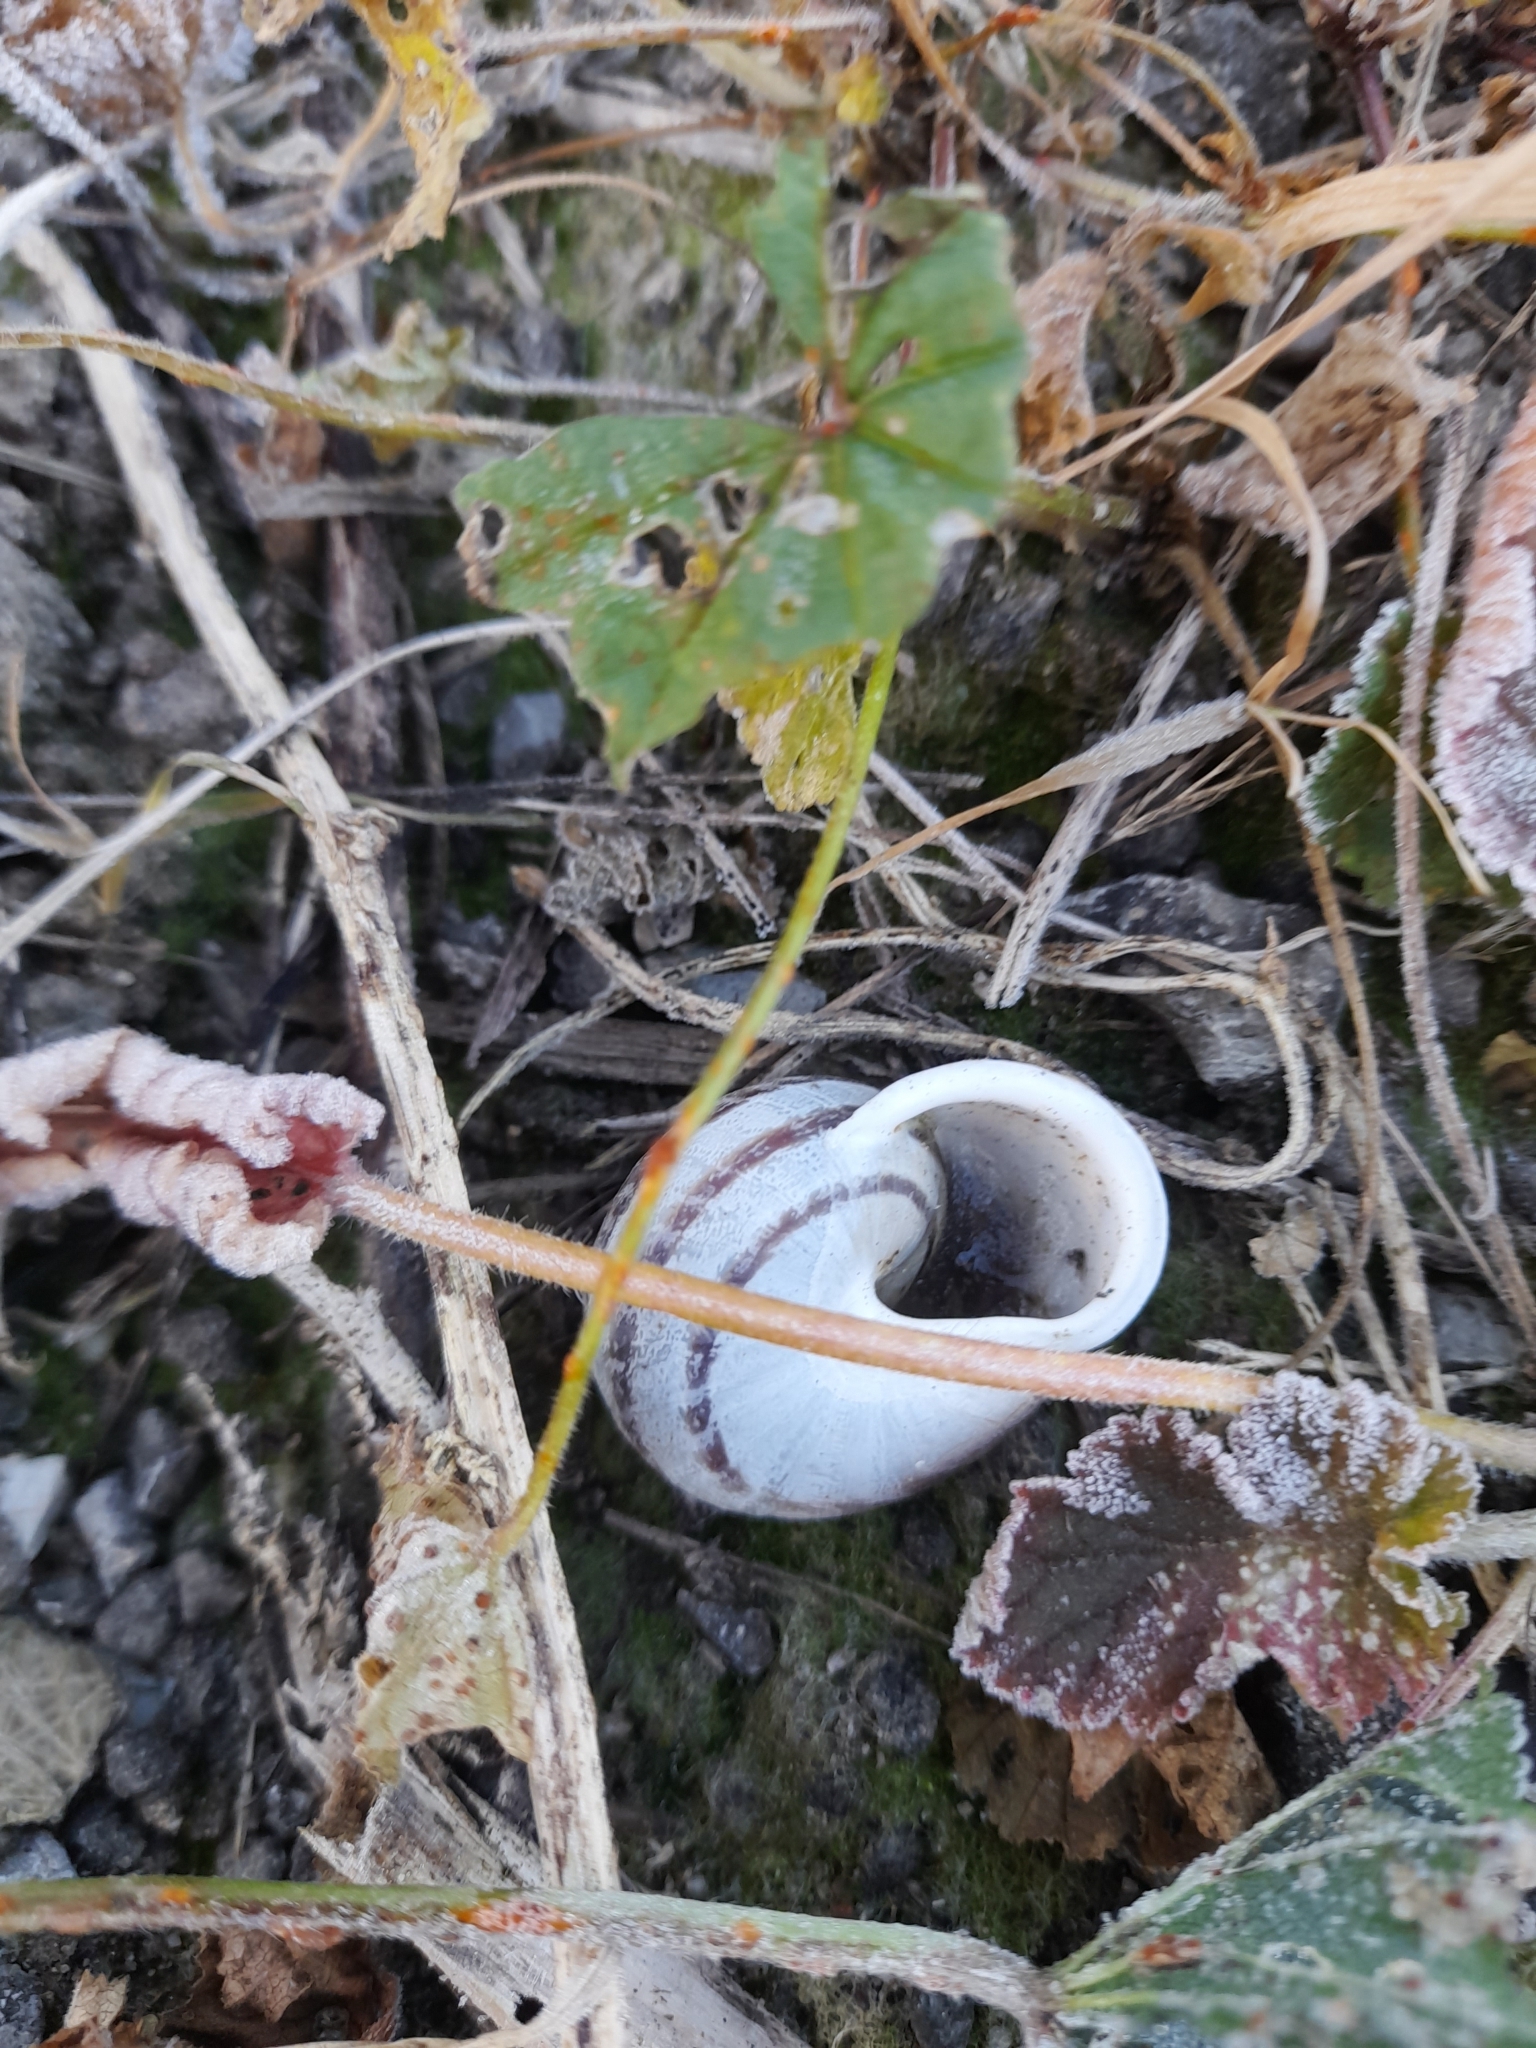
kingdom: Animalia
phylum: Mollusca
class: Gastropoda
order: Stylommatophora
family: Helicidae
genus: Eobania
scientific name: Eobania vermiculata
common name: Chocolateband snail
